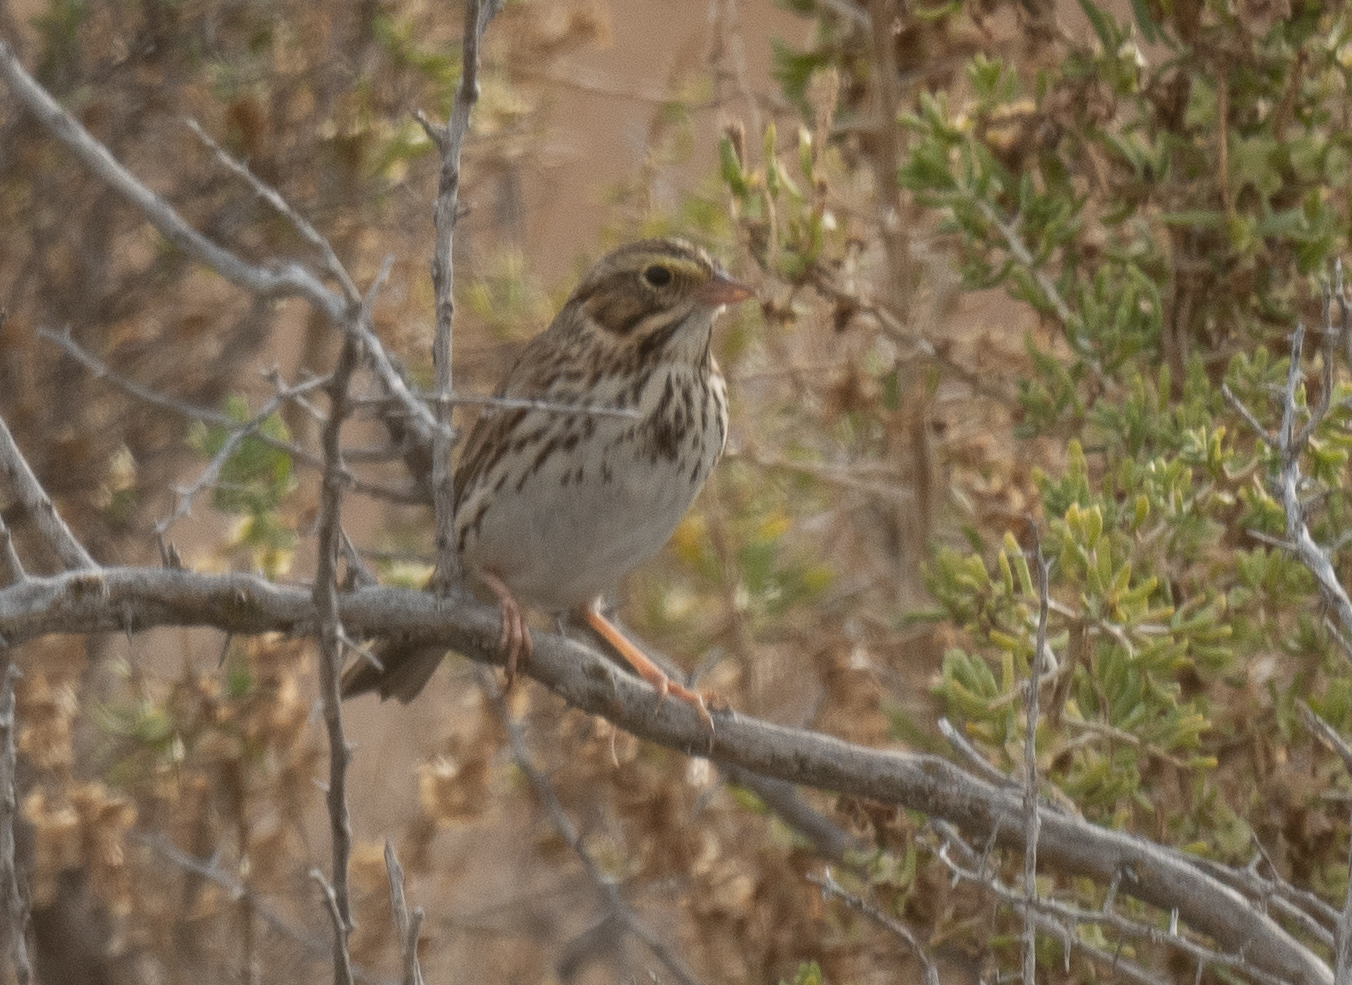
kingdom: Animalia
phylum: Chordata
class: Aves
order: Passeriformes
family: Passerellidae
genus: Passerculus
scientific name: Passerculus sandwichensis
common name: Savannah sparrow
